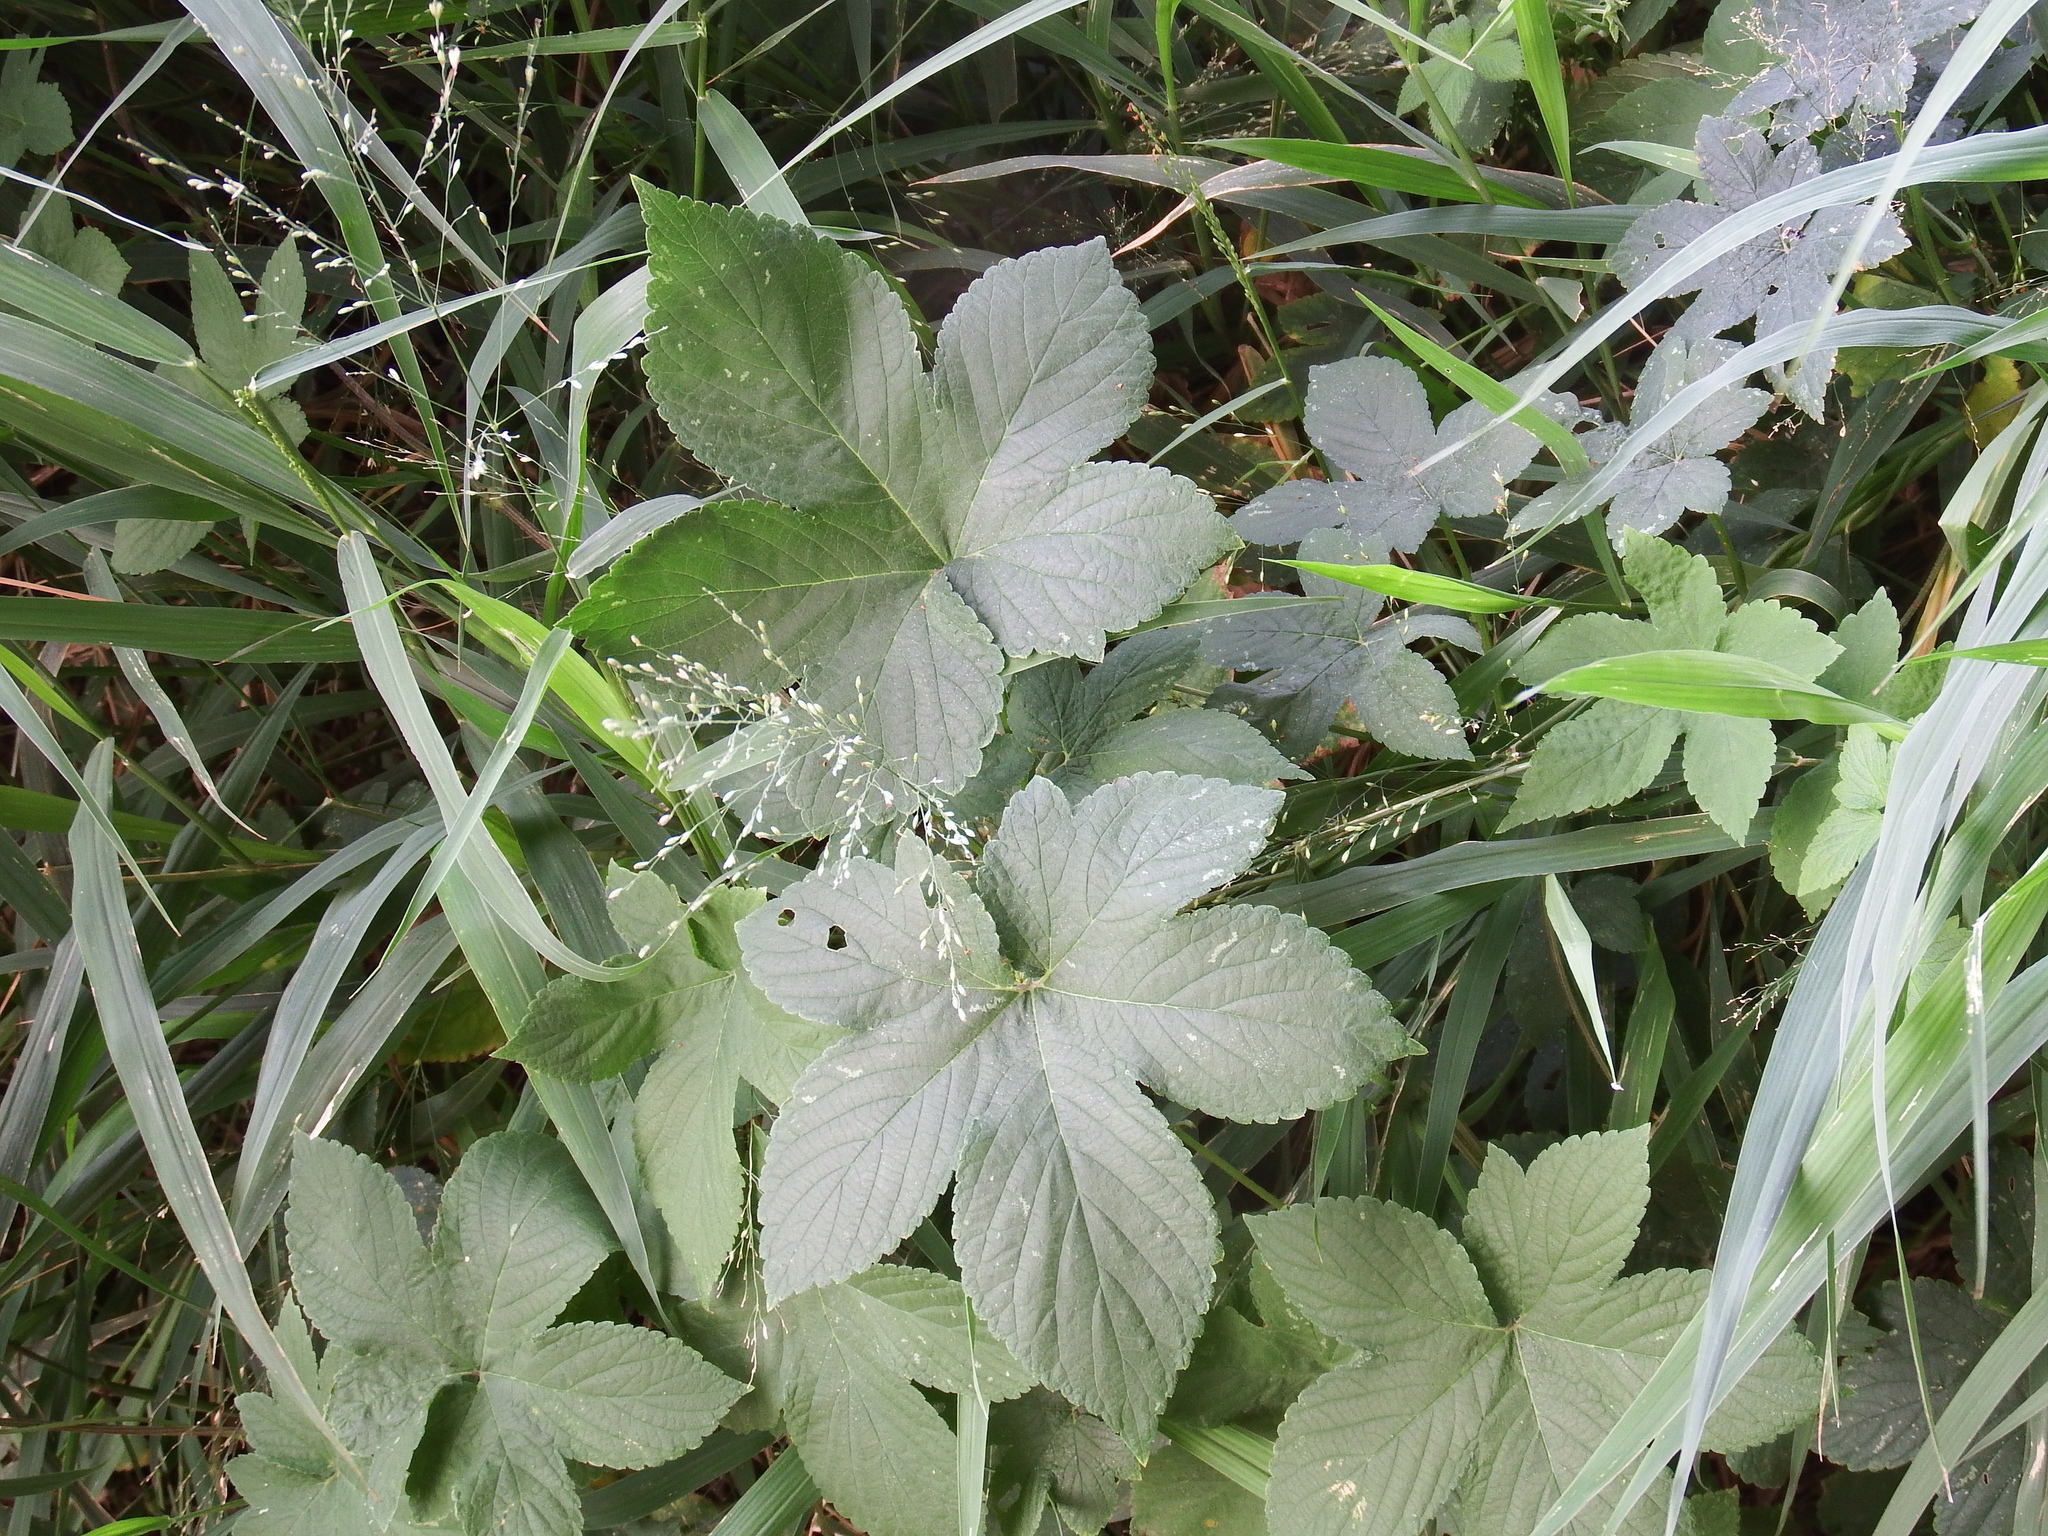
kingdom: Plantae
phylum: Tracheophyta
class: Magnoliopsida
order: Rosales
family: Cannabaceae
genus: Humulus
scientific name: Humulus scandens
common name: Japanese hop
